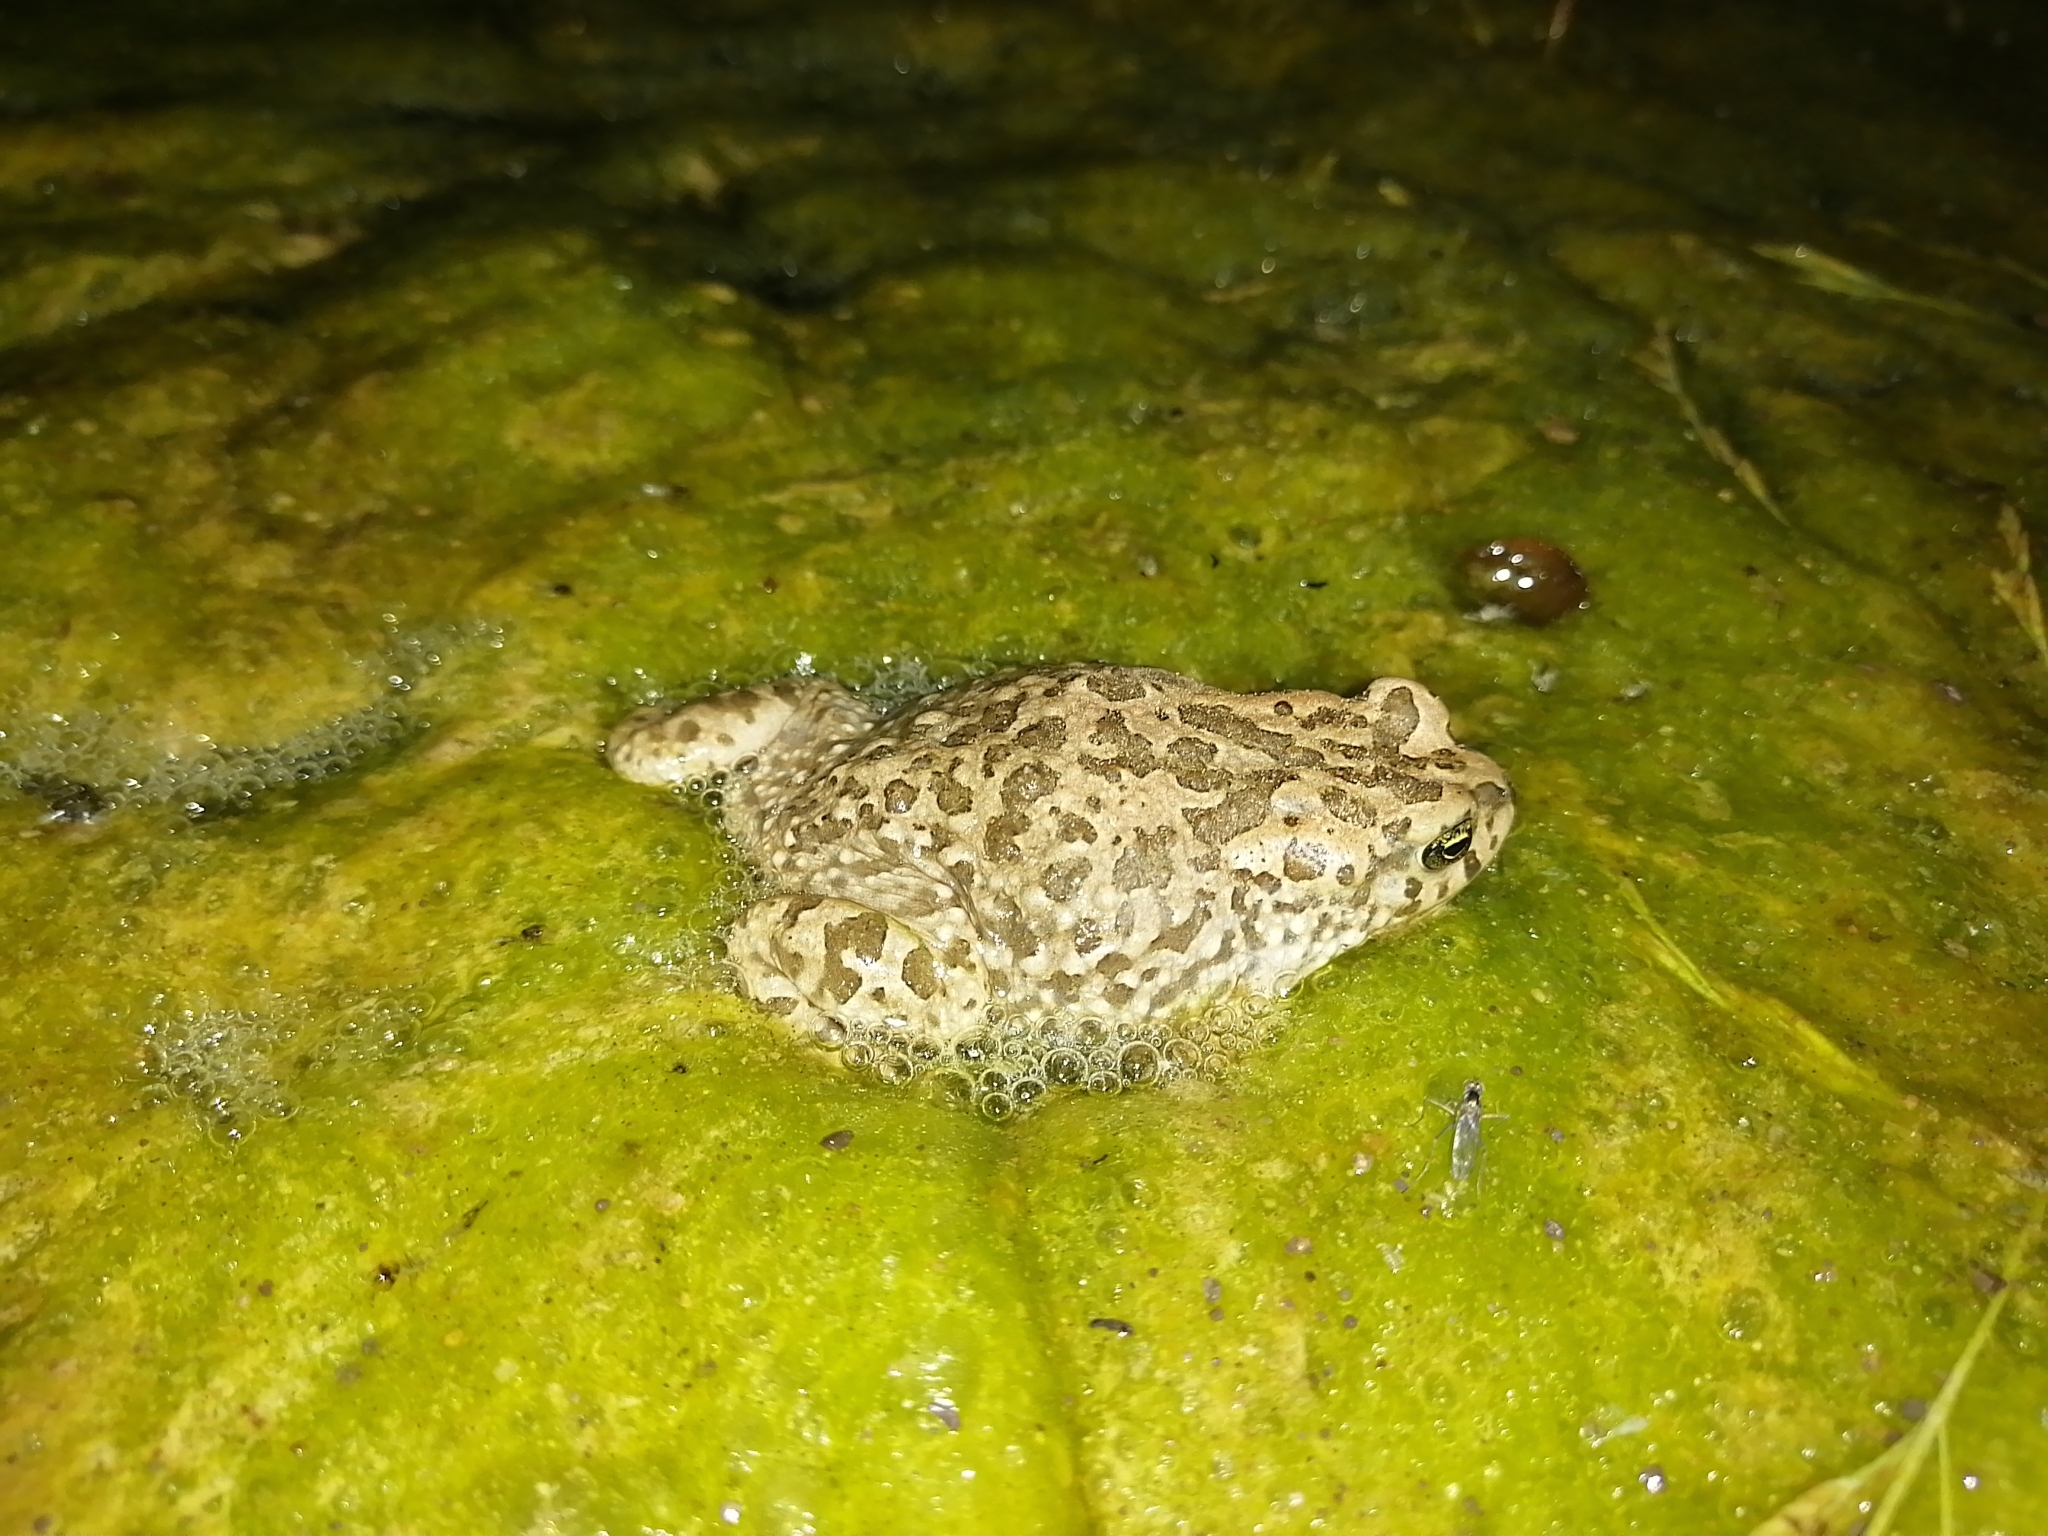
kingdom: Animalia
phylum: Chordata
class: Amphibia
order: Anura
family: Bufonidae
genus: Vandijkophrynus
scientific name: Vandijkophrynus gariepensis
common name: Gariep toad
